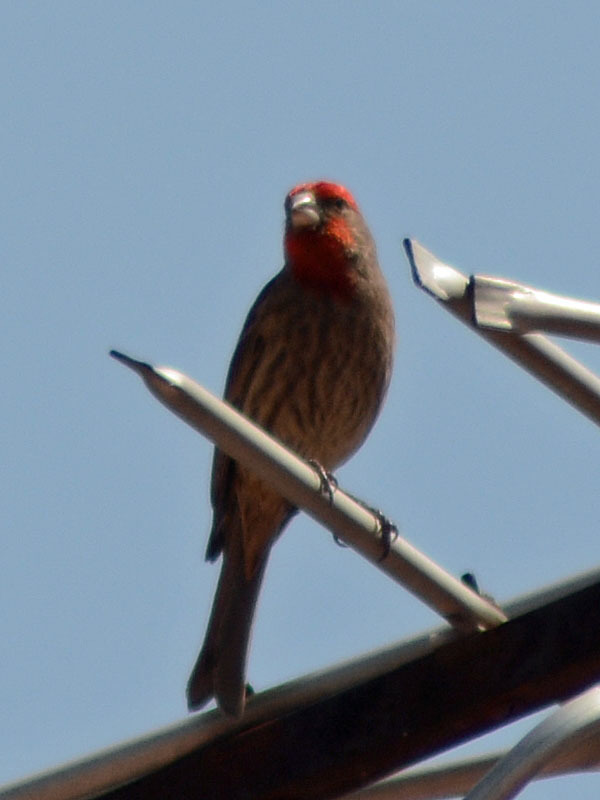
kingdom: Animalia
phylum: Chordata
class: Aves
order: Passeriformes
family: Fringillidae
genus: Haemorhous
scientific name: Haemorhous mexicanus
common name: House finch
